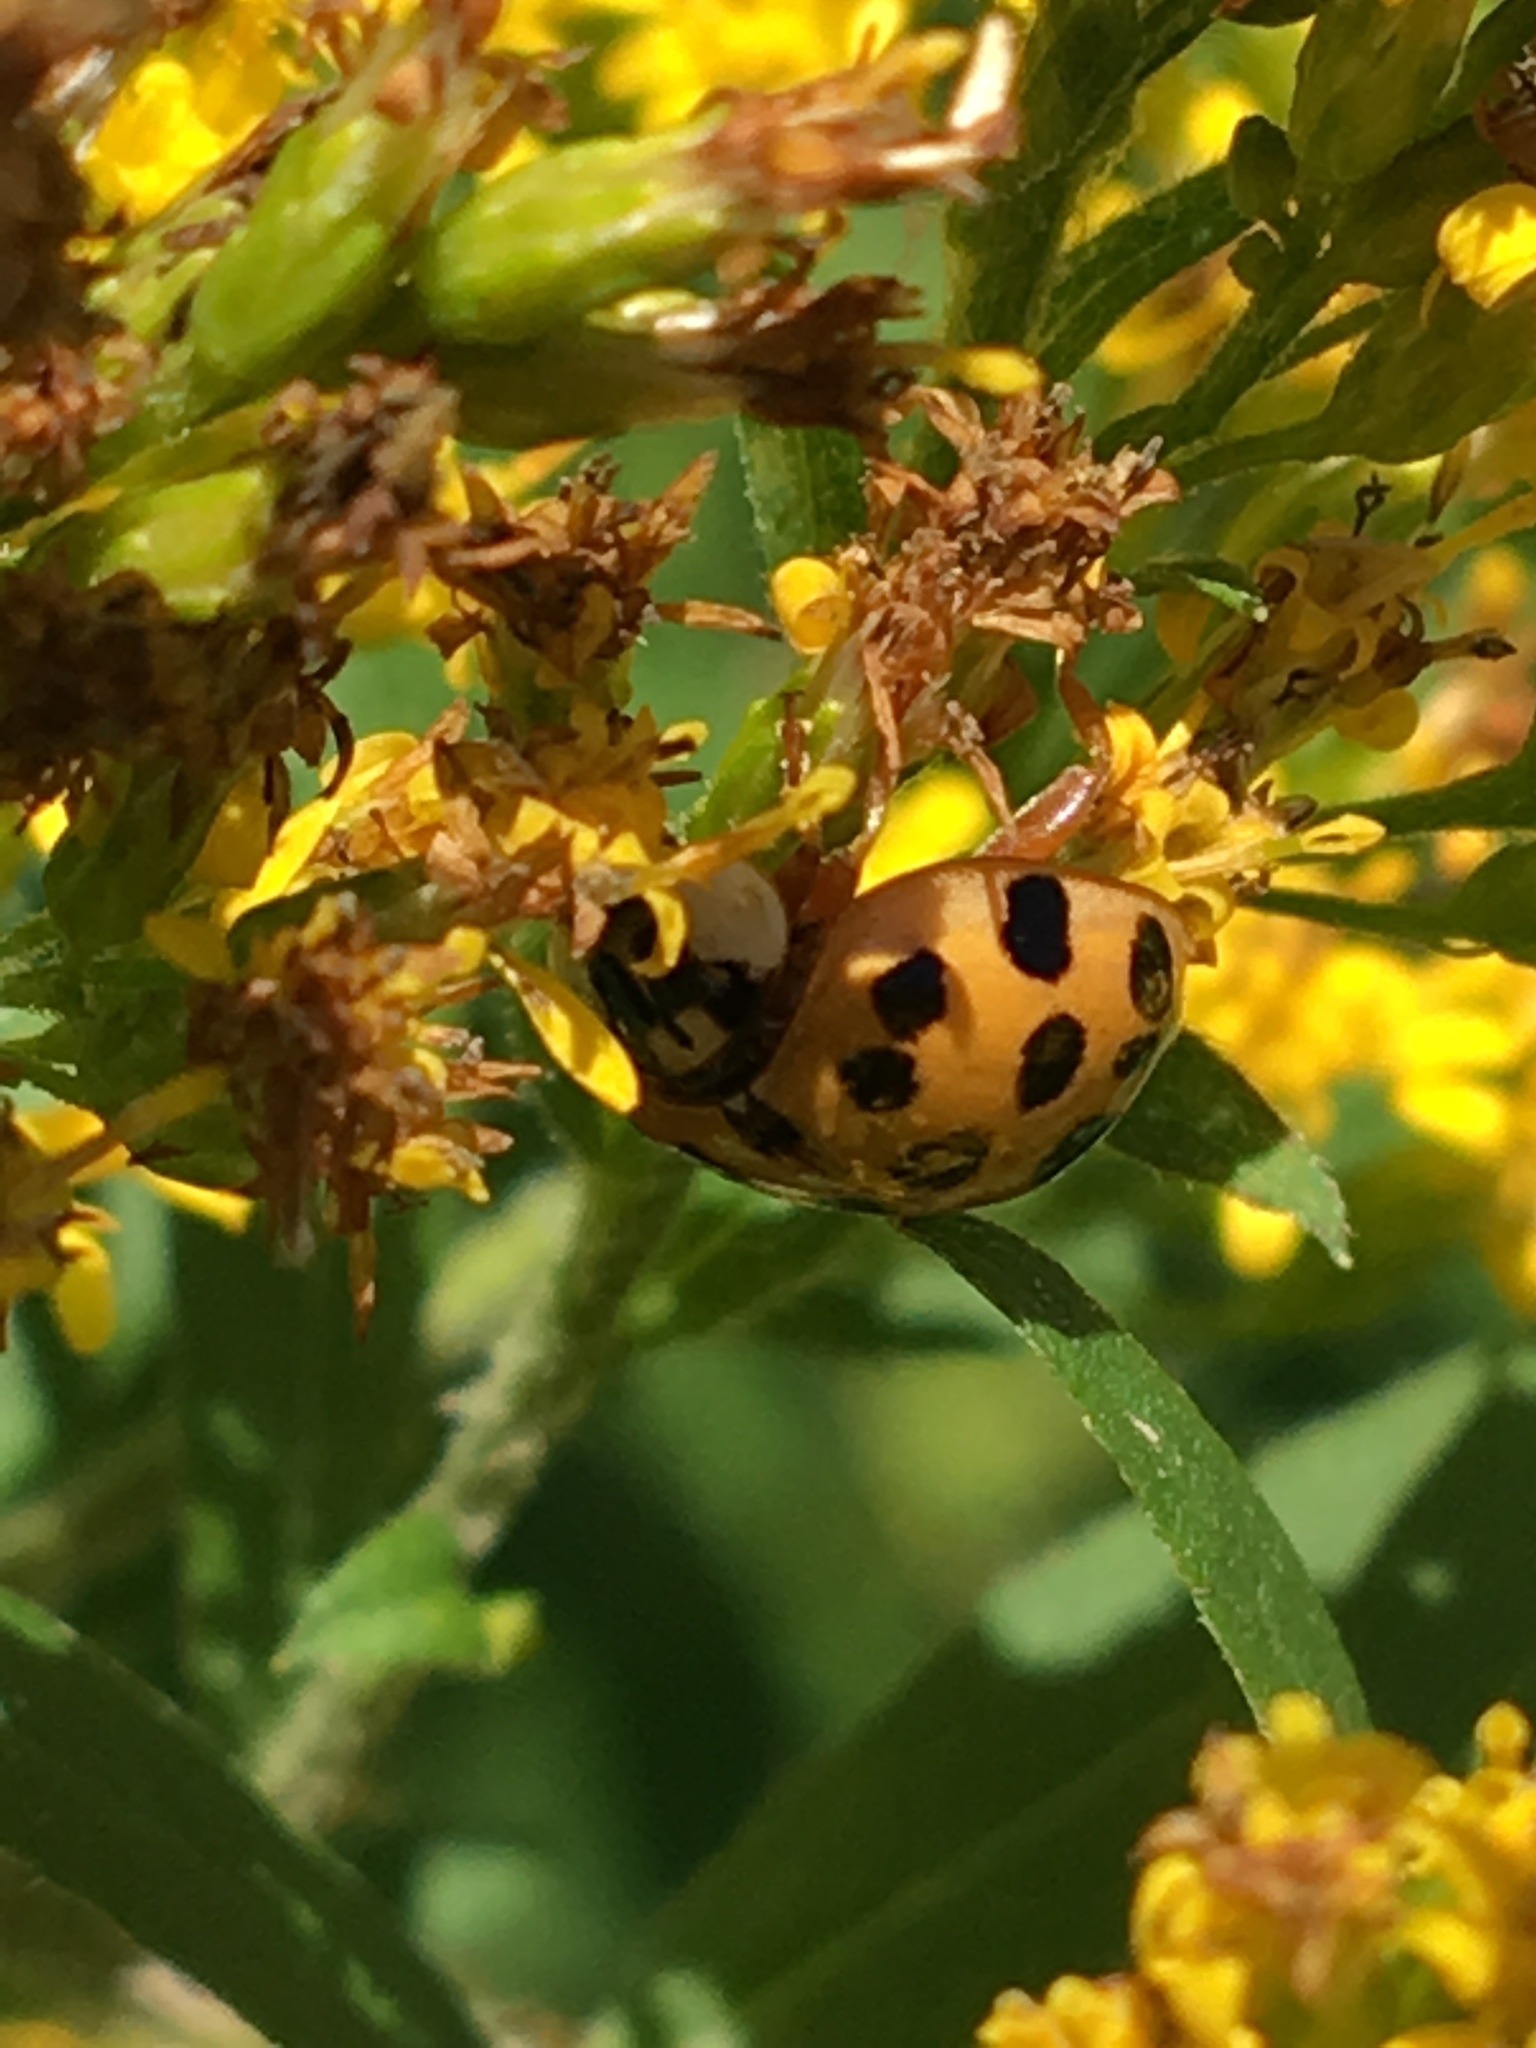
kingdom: Animalia
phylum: Arthropoda
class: Insecta
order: Coleoptera
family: Coccinellidae
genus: Harmonia
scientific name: Harmonia axyridis
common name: Harlequin ladybird
